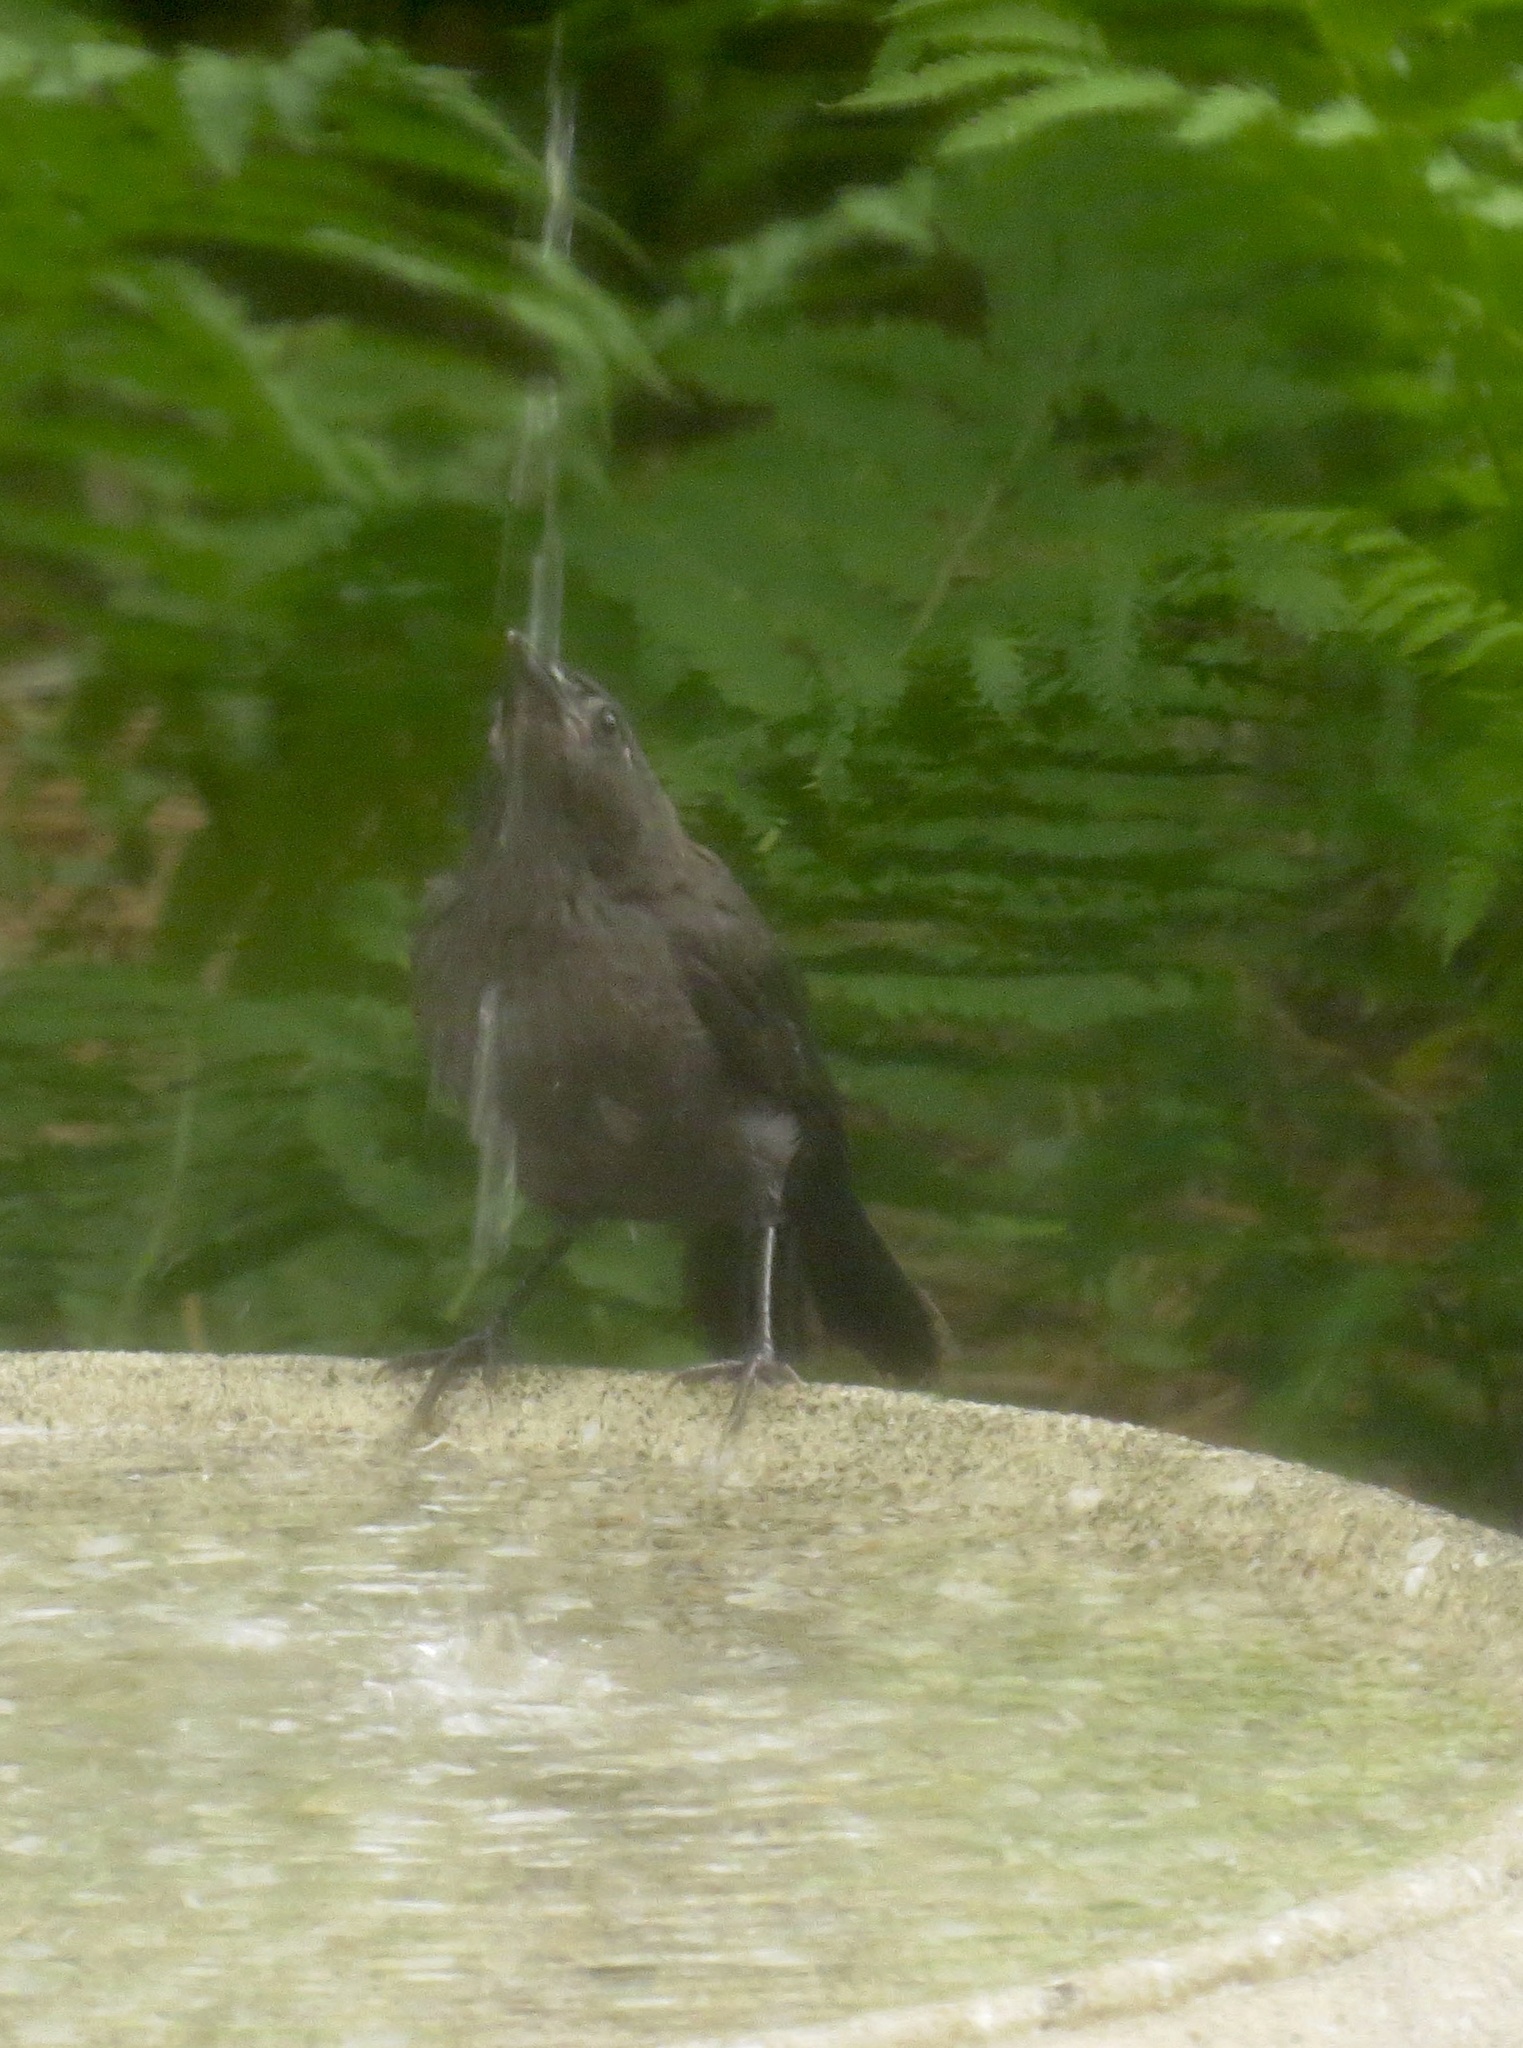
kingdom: Animalia
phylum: Chordata
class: Aves
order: Passeriformes
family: Icteridae
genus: Quiscalus
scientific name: Quiscalus quiscula
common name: Common grackle
